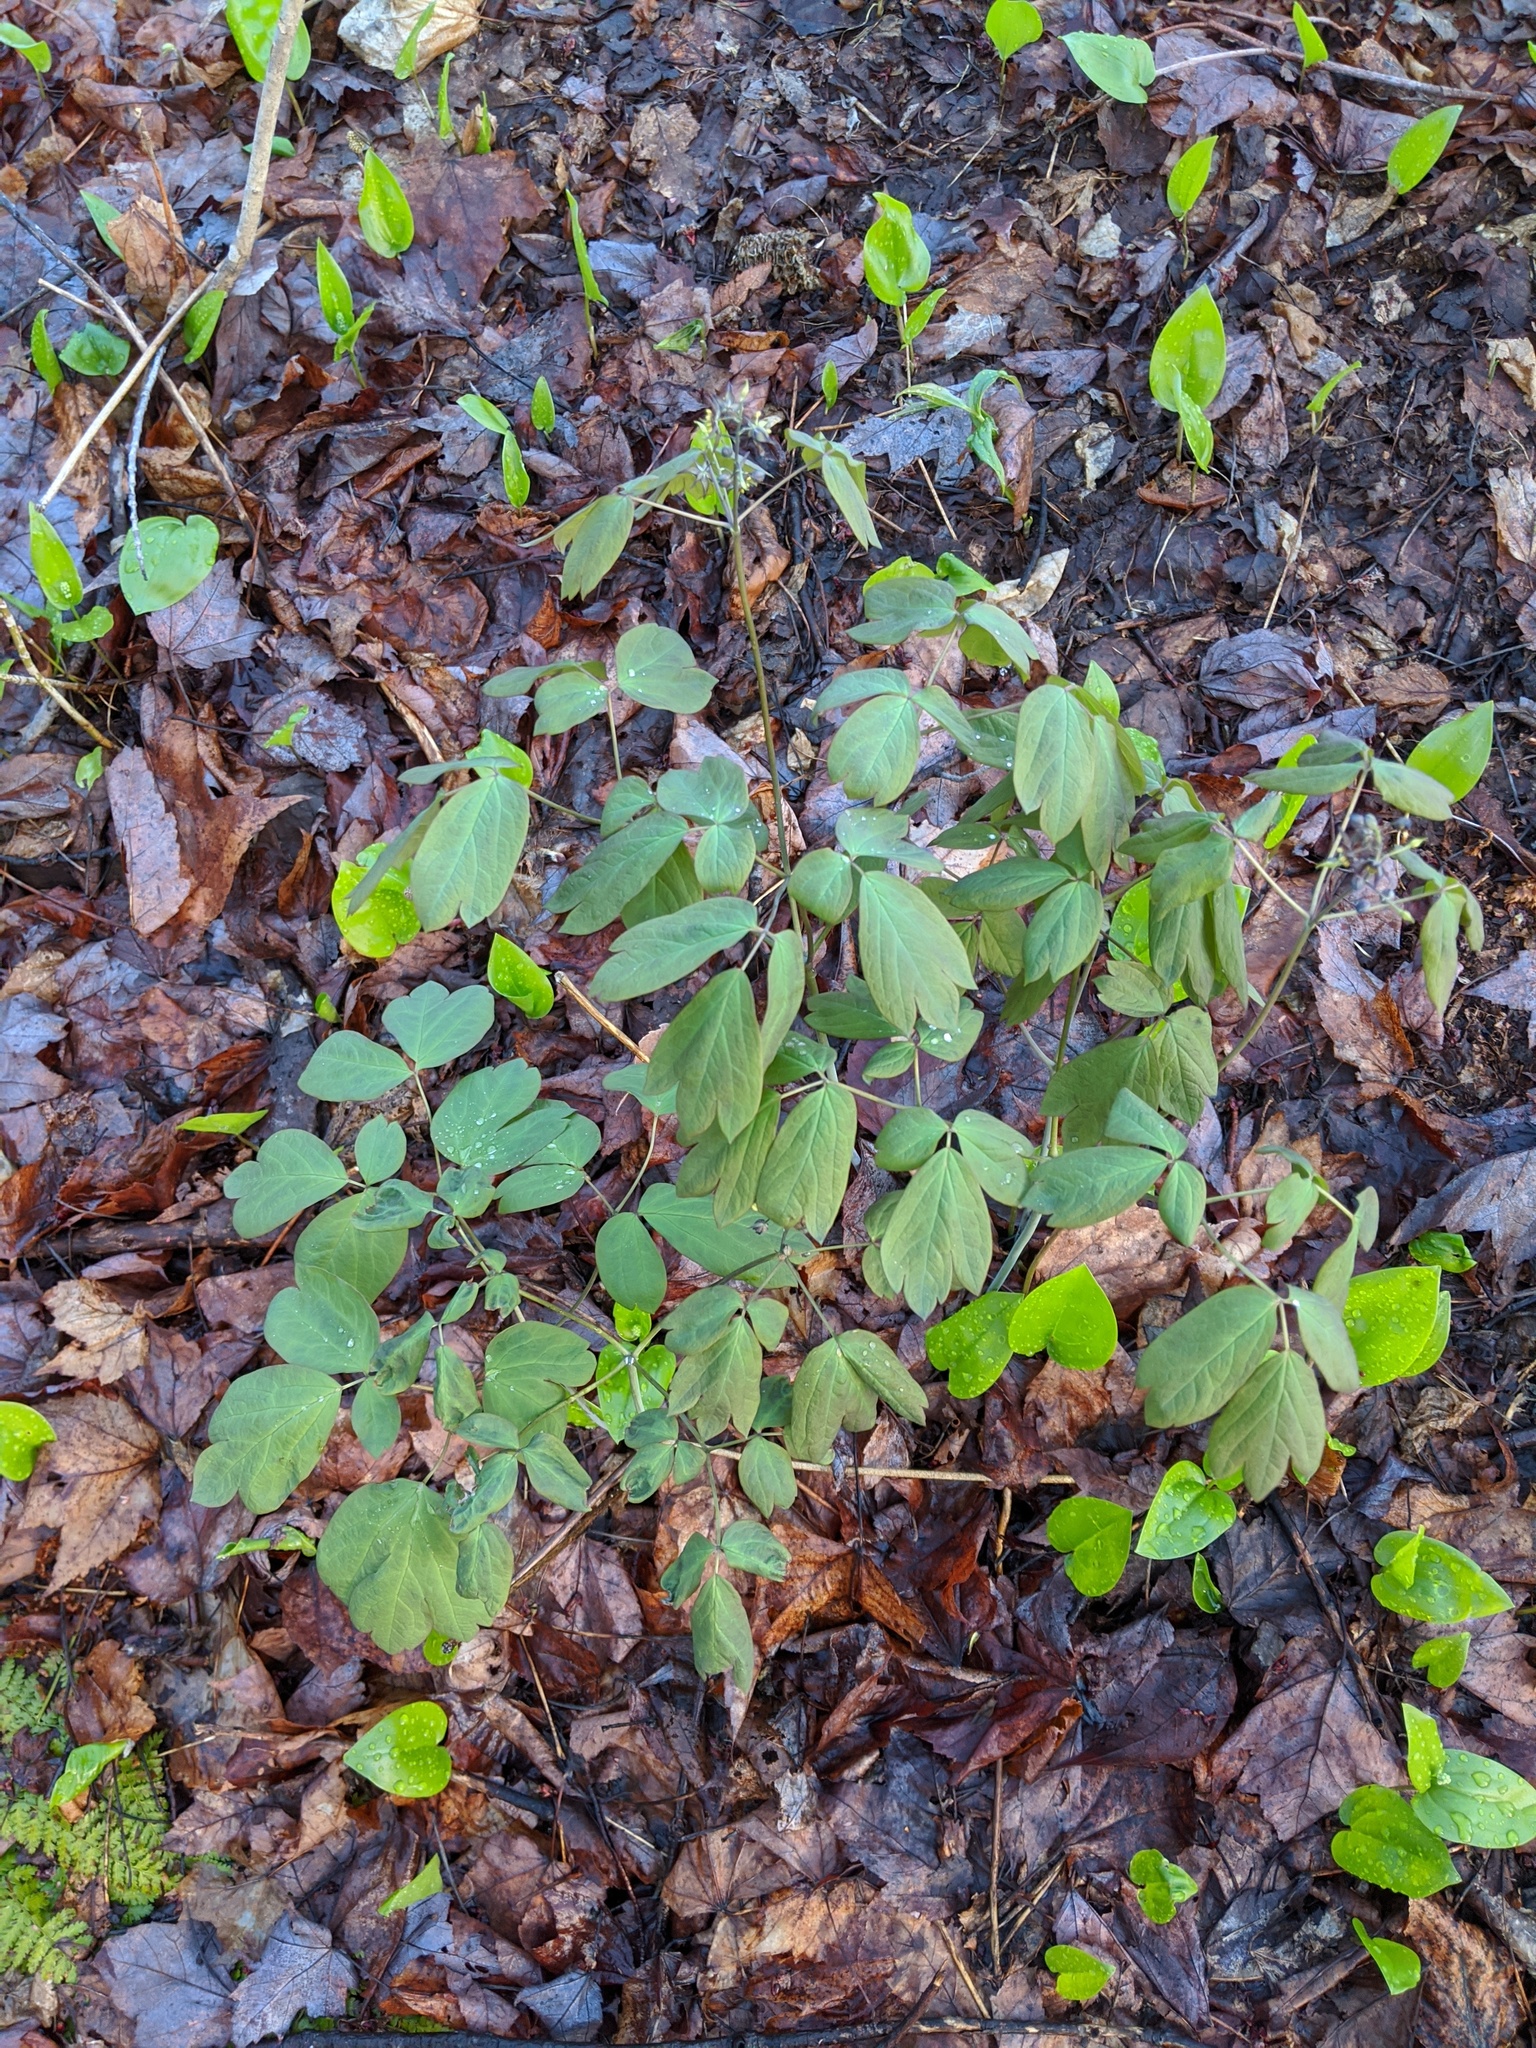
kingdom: Plantae
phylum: Tracheophyta
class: Magnoliopsida
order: Ranunculales
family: Berberidaceae
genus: Caulophyllum
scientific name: Caulophyllum giganteum
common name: Blue cohosh
